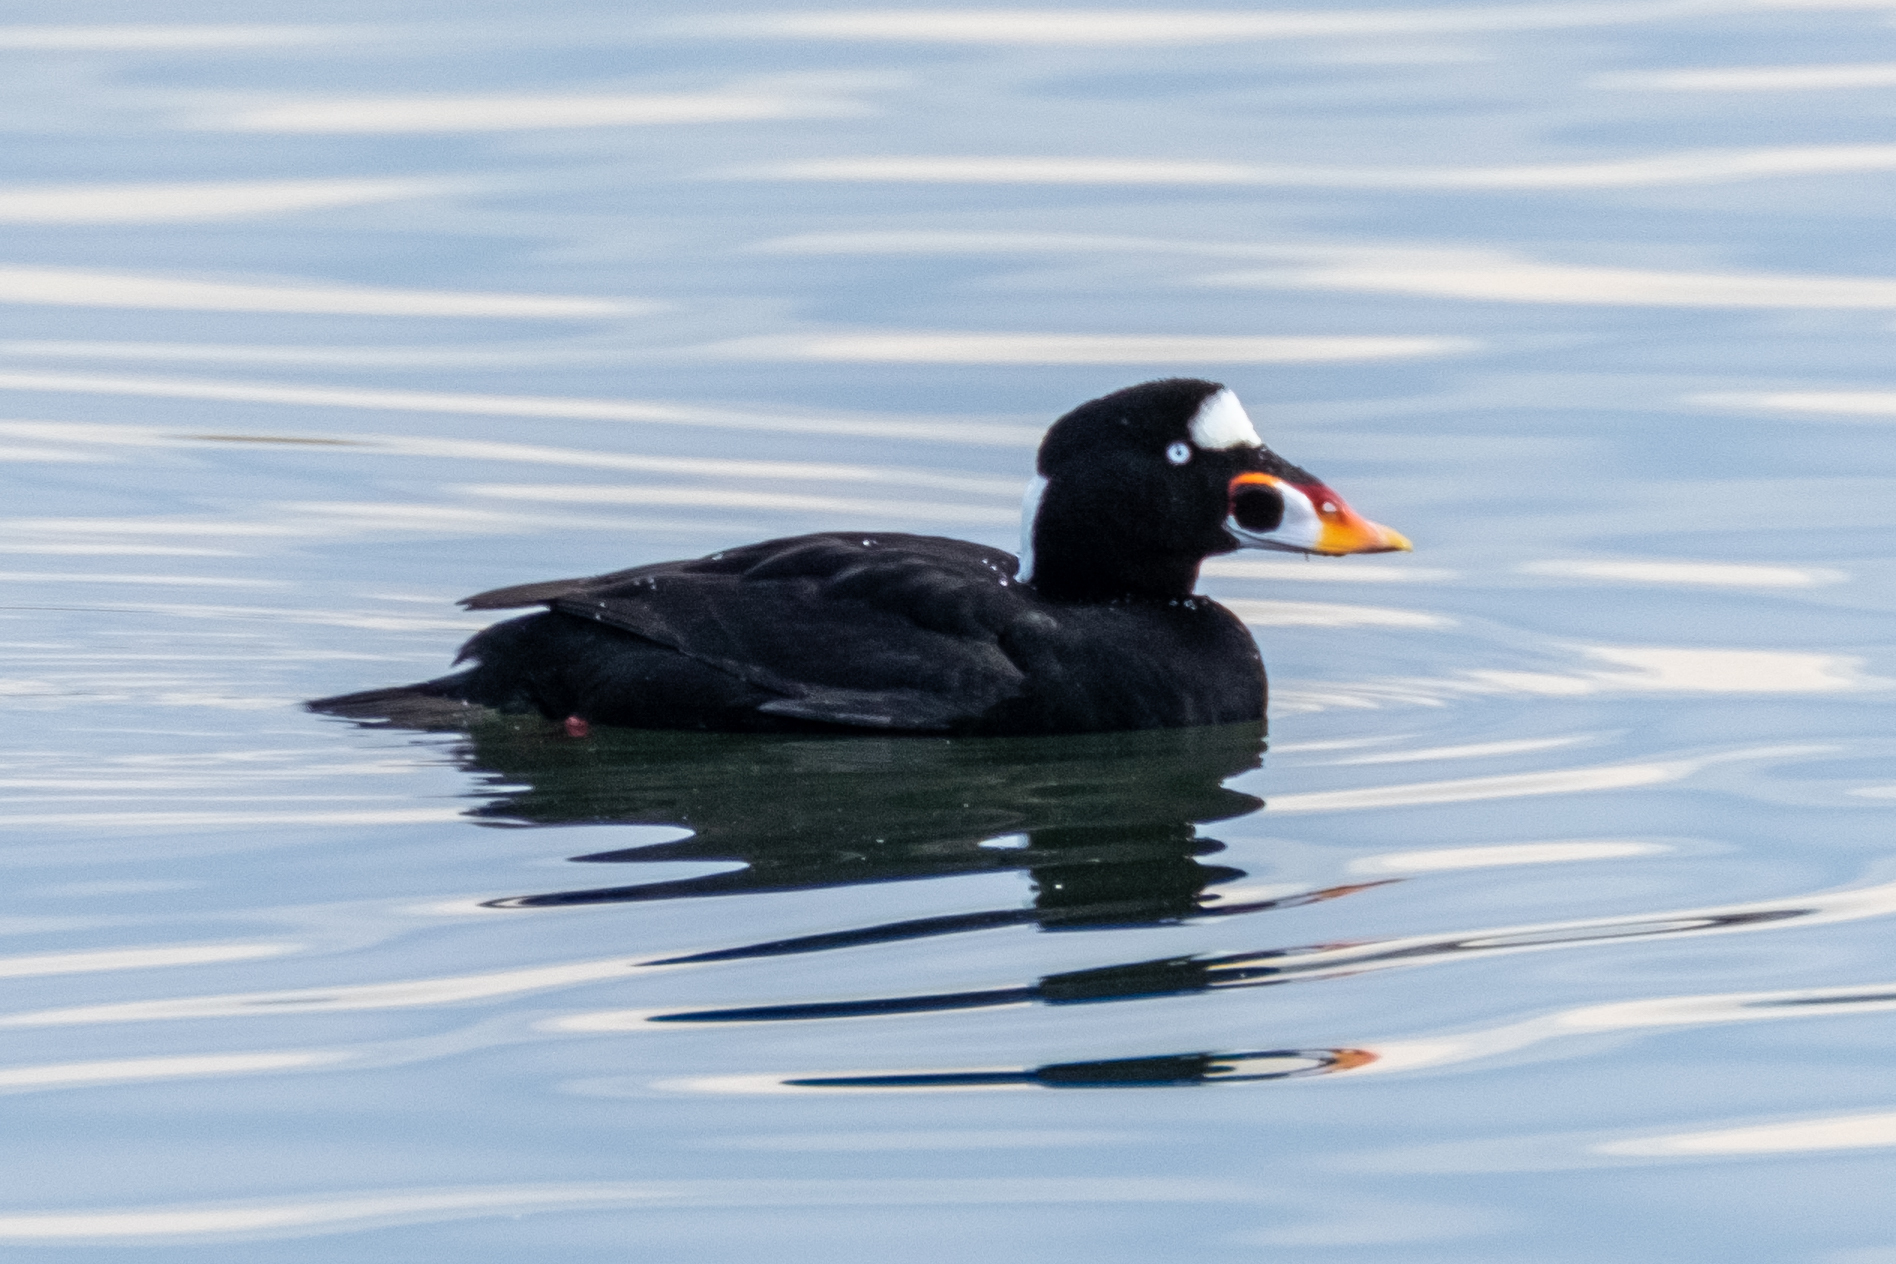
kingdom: Animalia
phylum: Chordata
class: Aves
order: Anseriformes
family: Anatidae
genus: Melanitta
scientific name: Melanitta perspicillata
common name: Surf scoter
